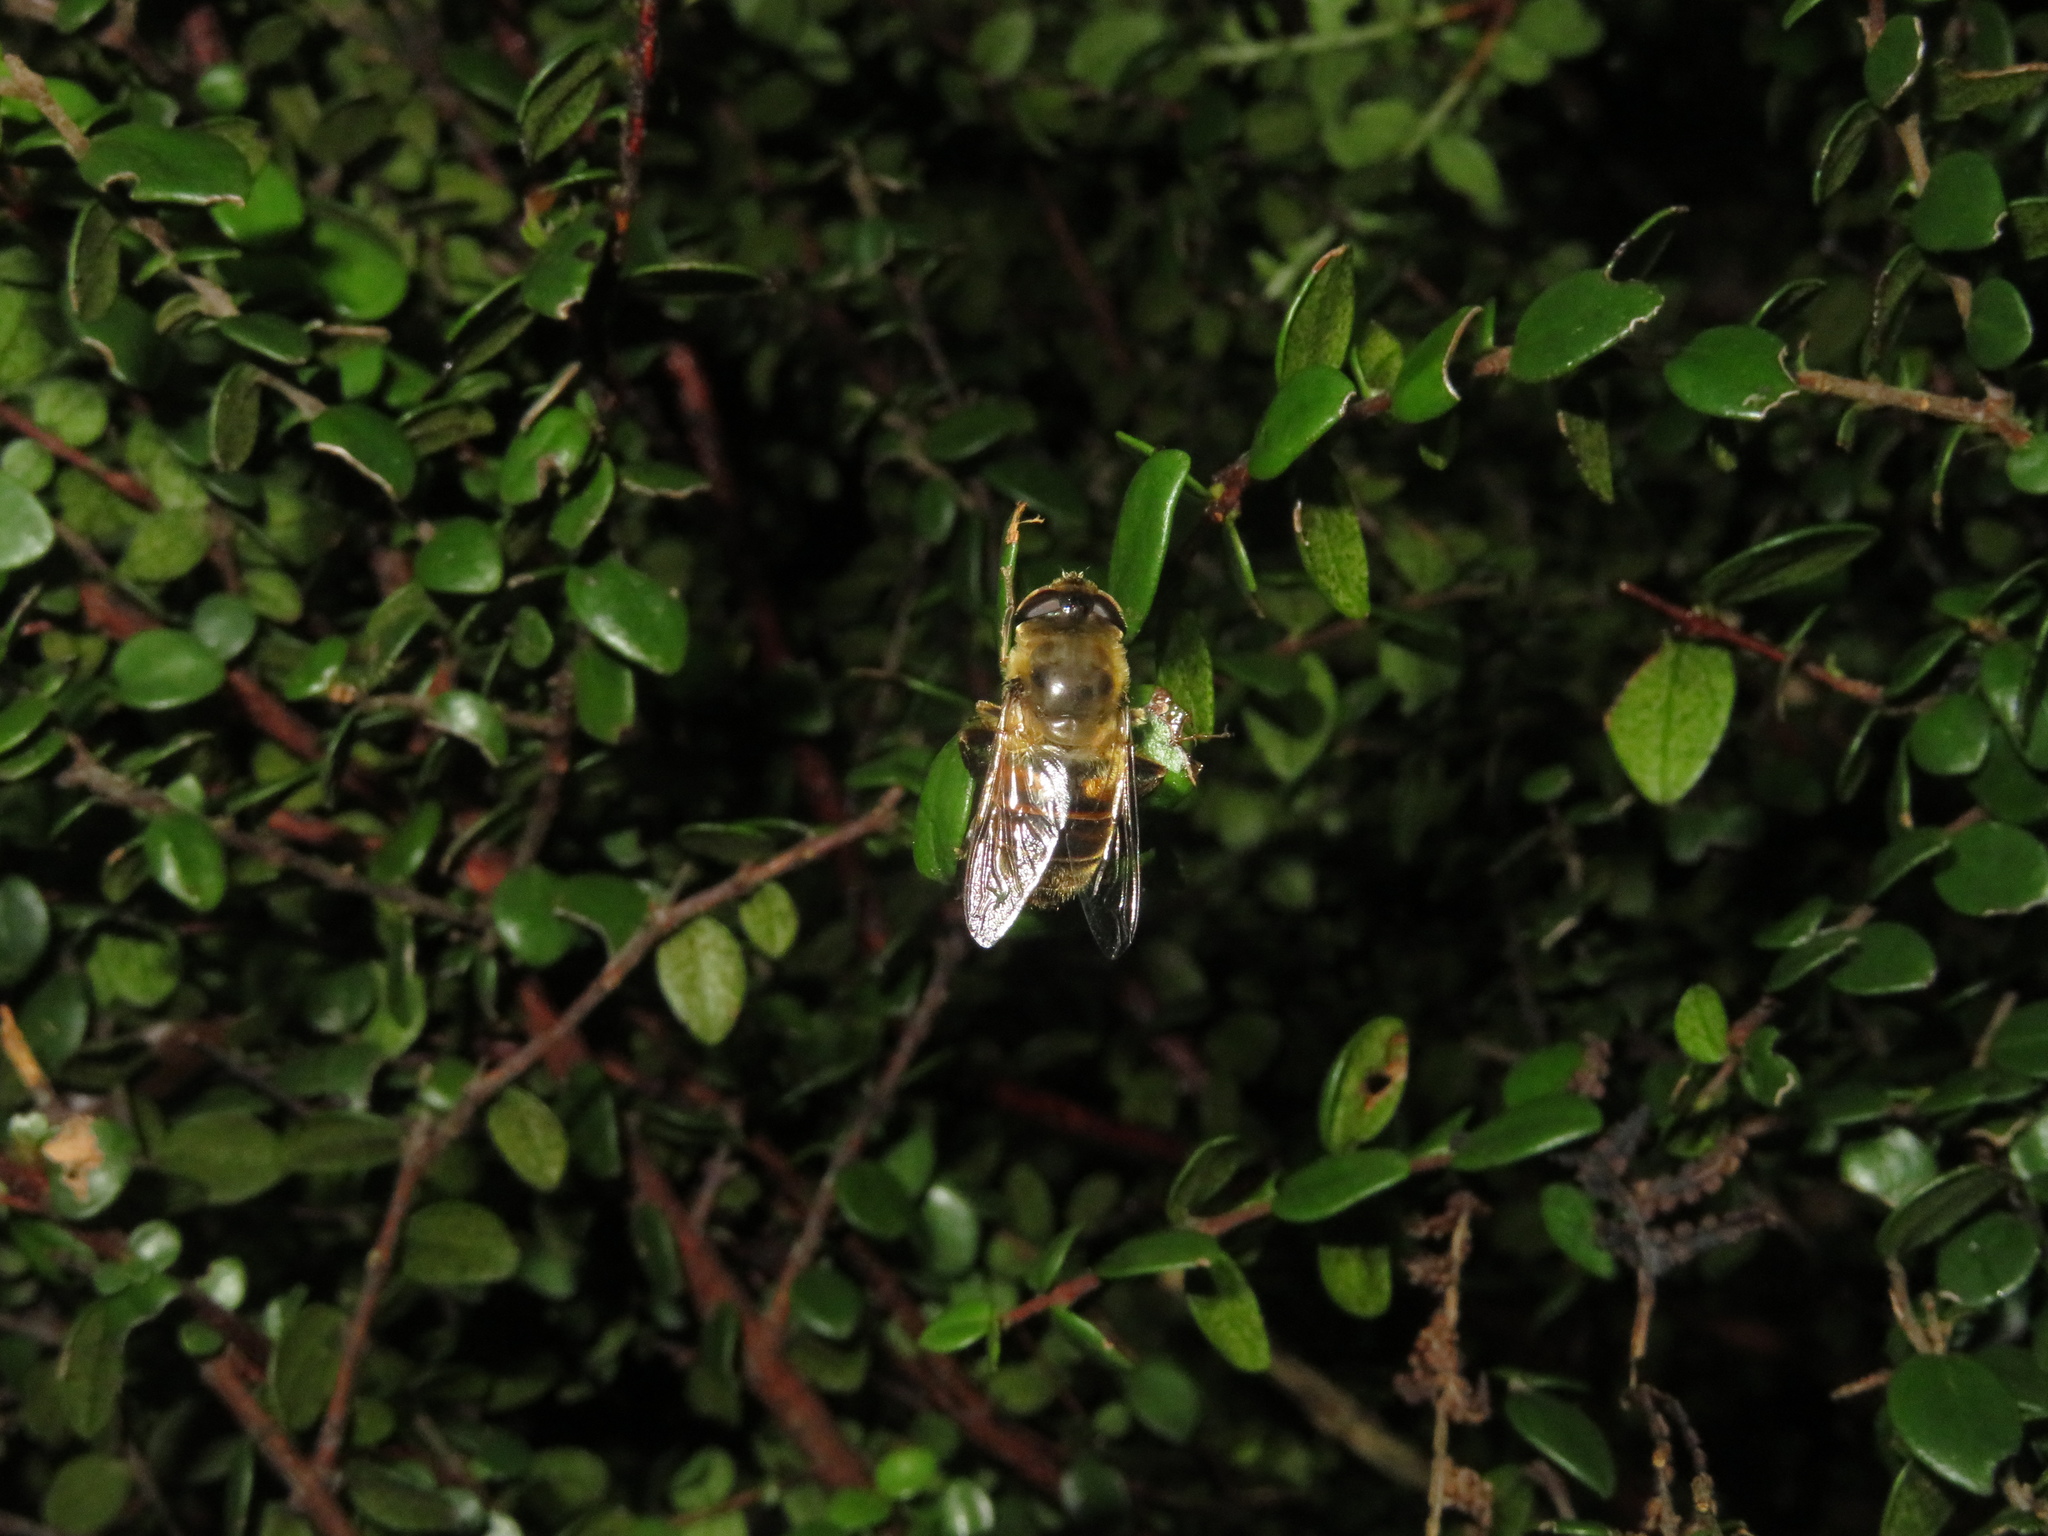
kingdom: Animalia
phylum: Arthropoda
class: Insecta
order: Diptera
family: Syrphidae
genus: Eristalis
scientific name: Eristalis tenax
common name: Drone fly
